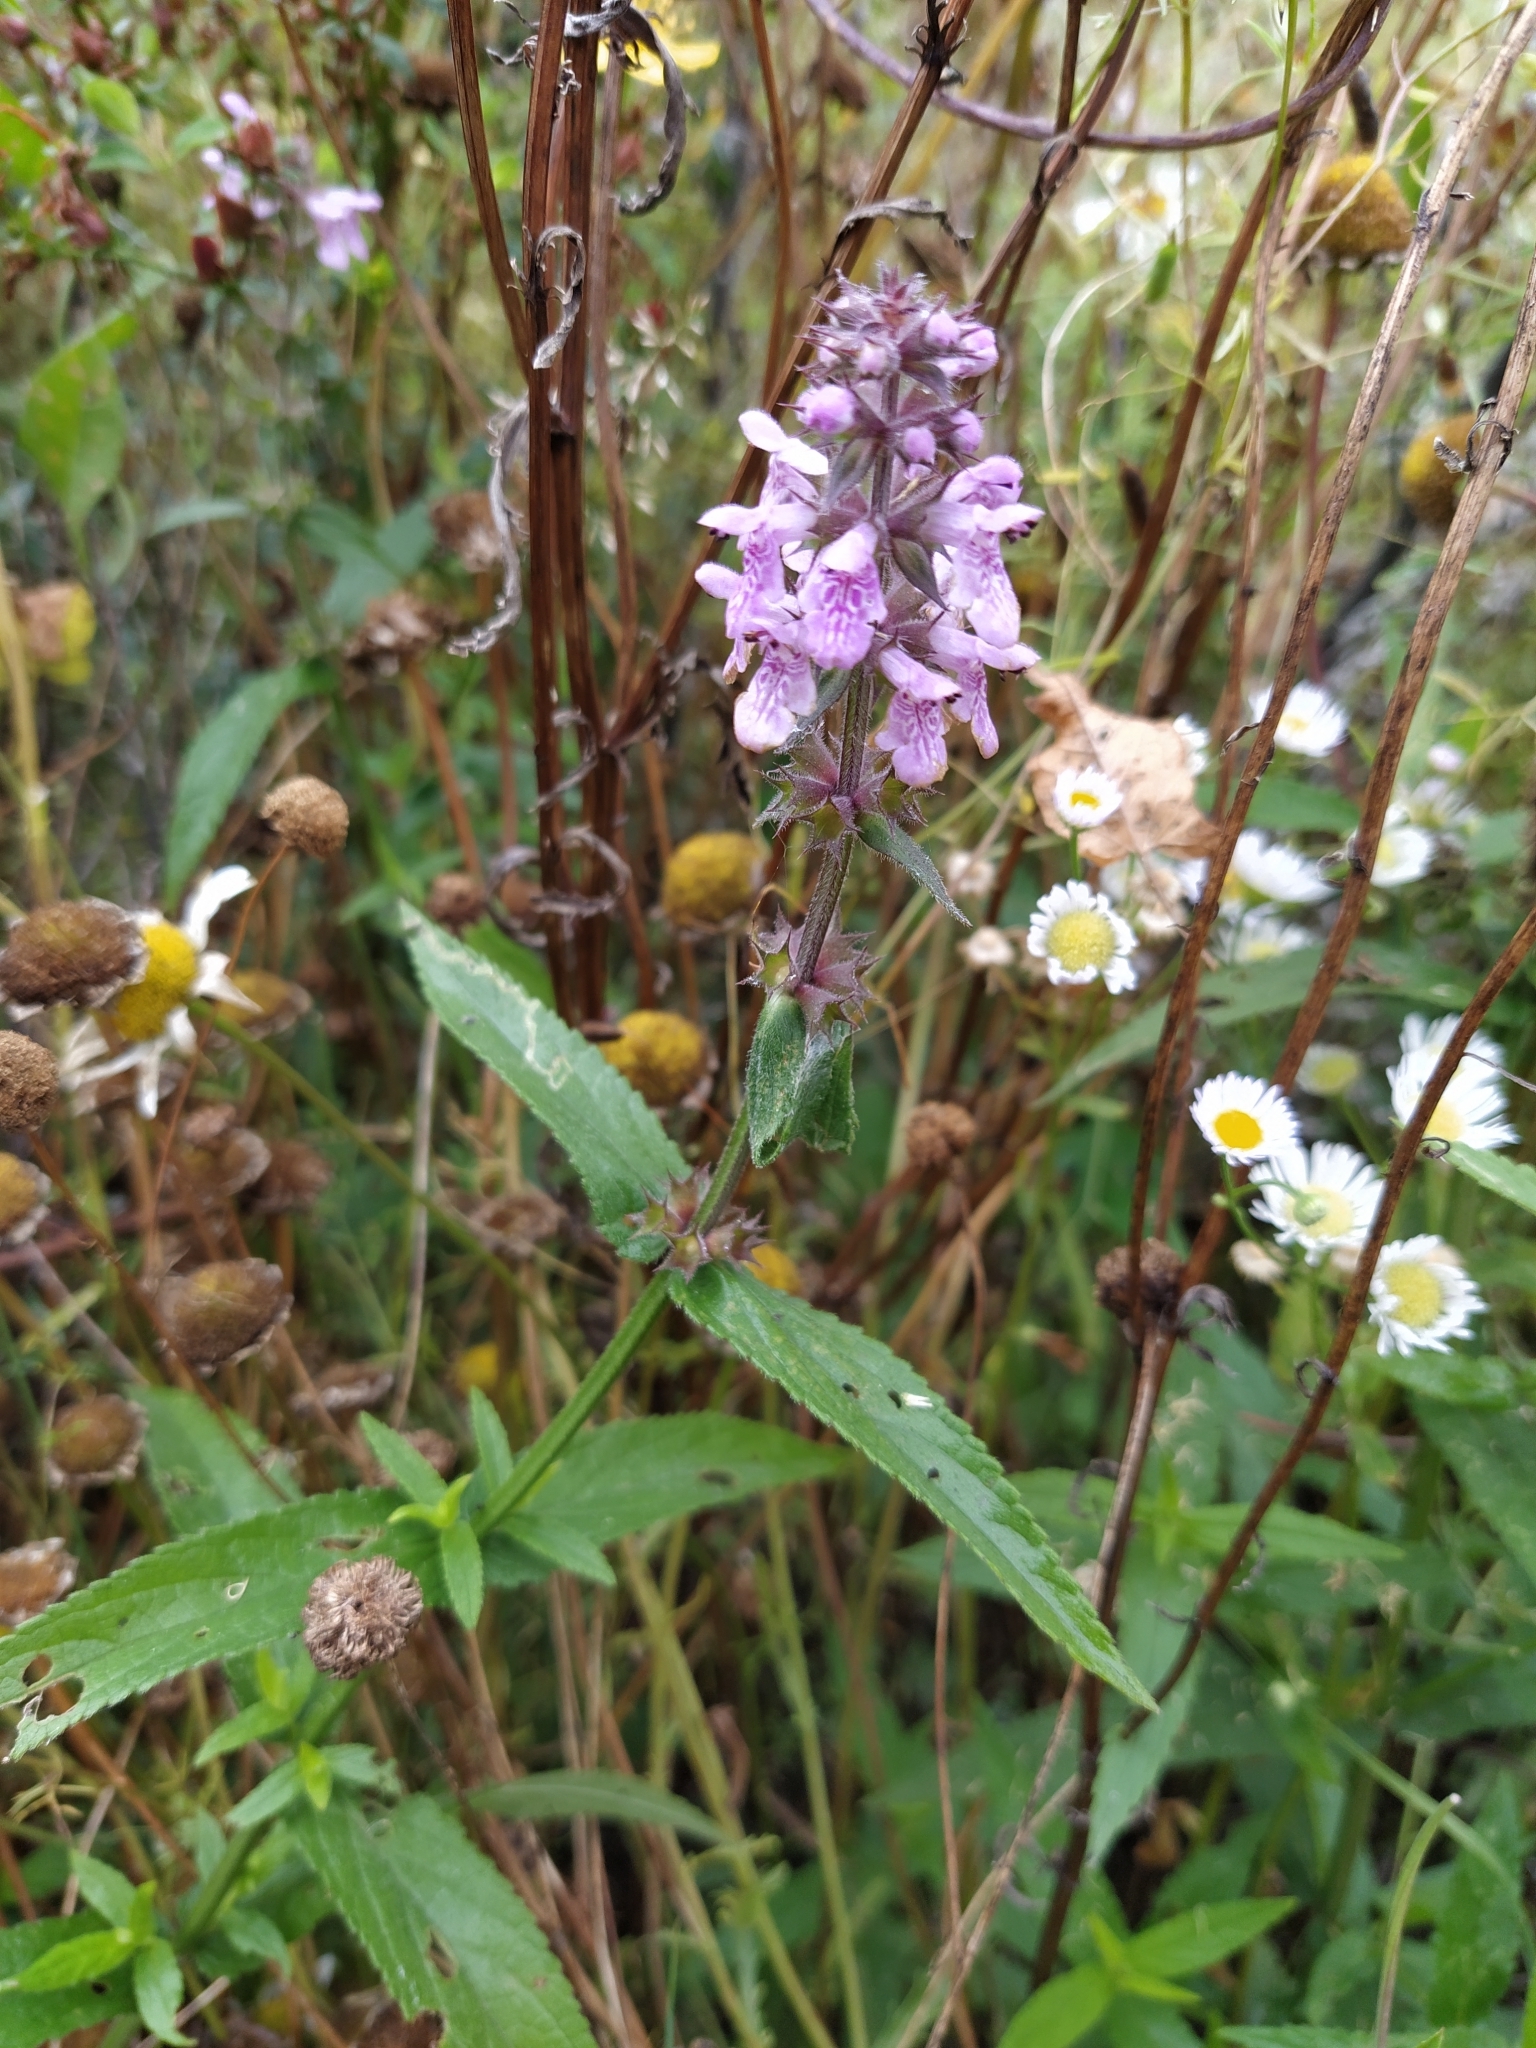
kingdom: Plantae
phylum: Tracheophyta
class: Magnoliopsida
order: Lamiales
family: Lamiaceae
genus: Stachys
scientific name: Stachys palustris
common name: Marsh woundwort
